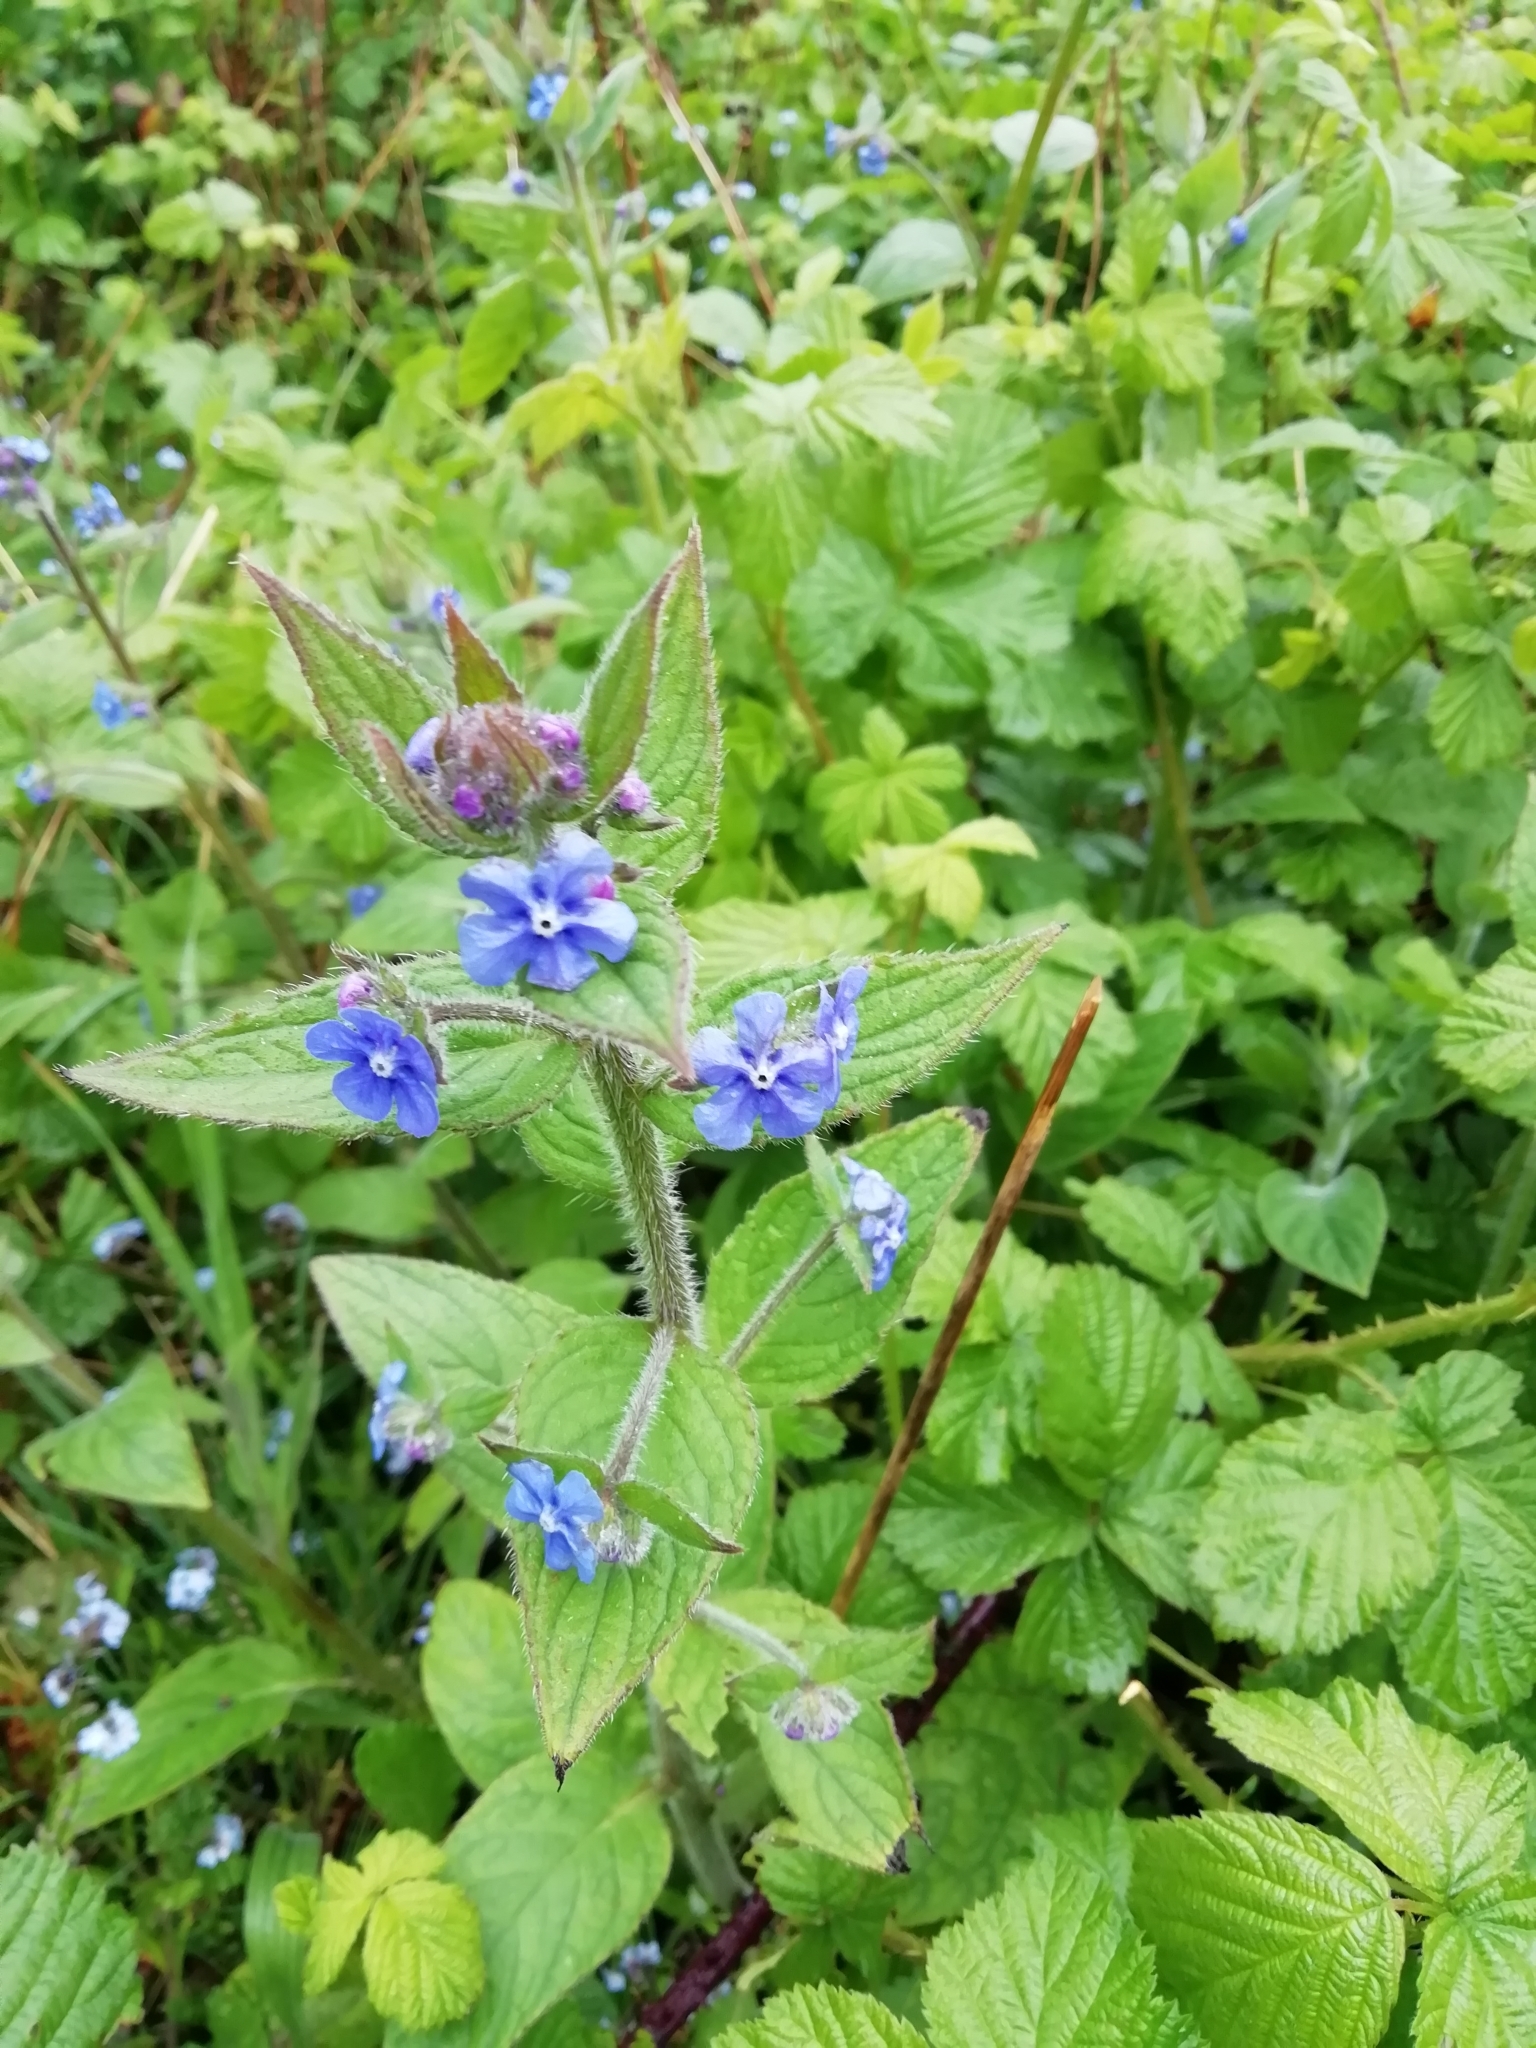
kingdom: Plantae
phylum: Tracheophyta
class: Magnoliopsida
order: Boraginales
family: Boraginaceae
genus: Pentaglottis
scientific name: Pentaglottis sempervirens
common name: Green alkanet
